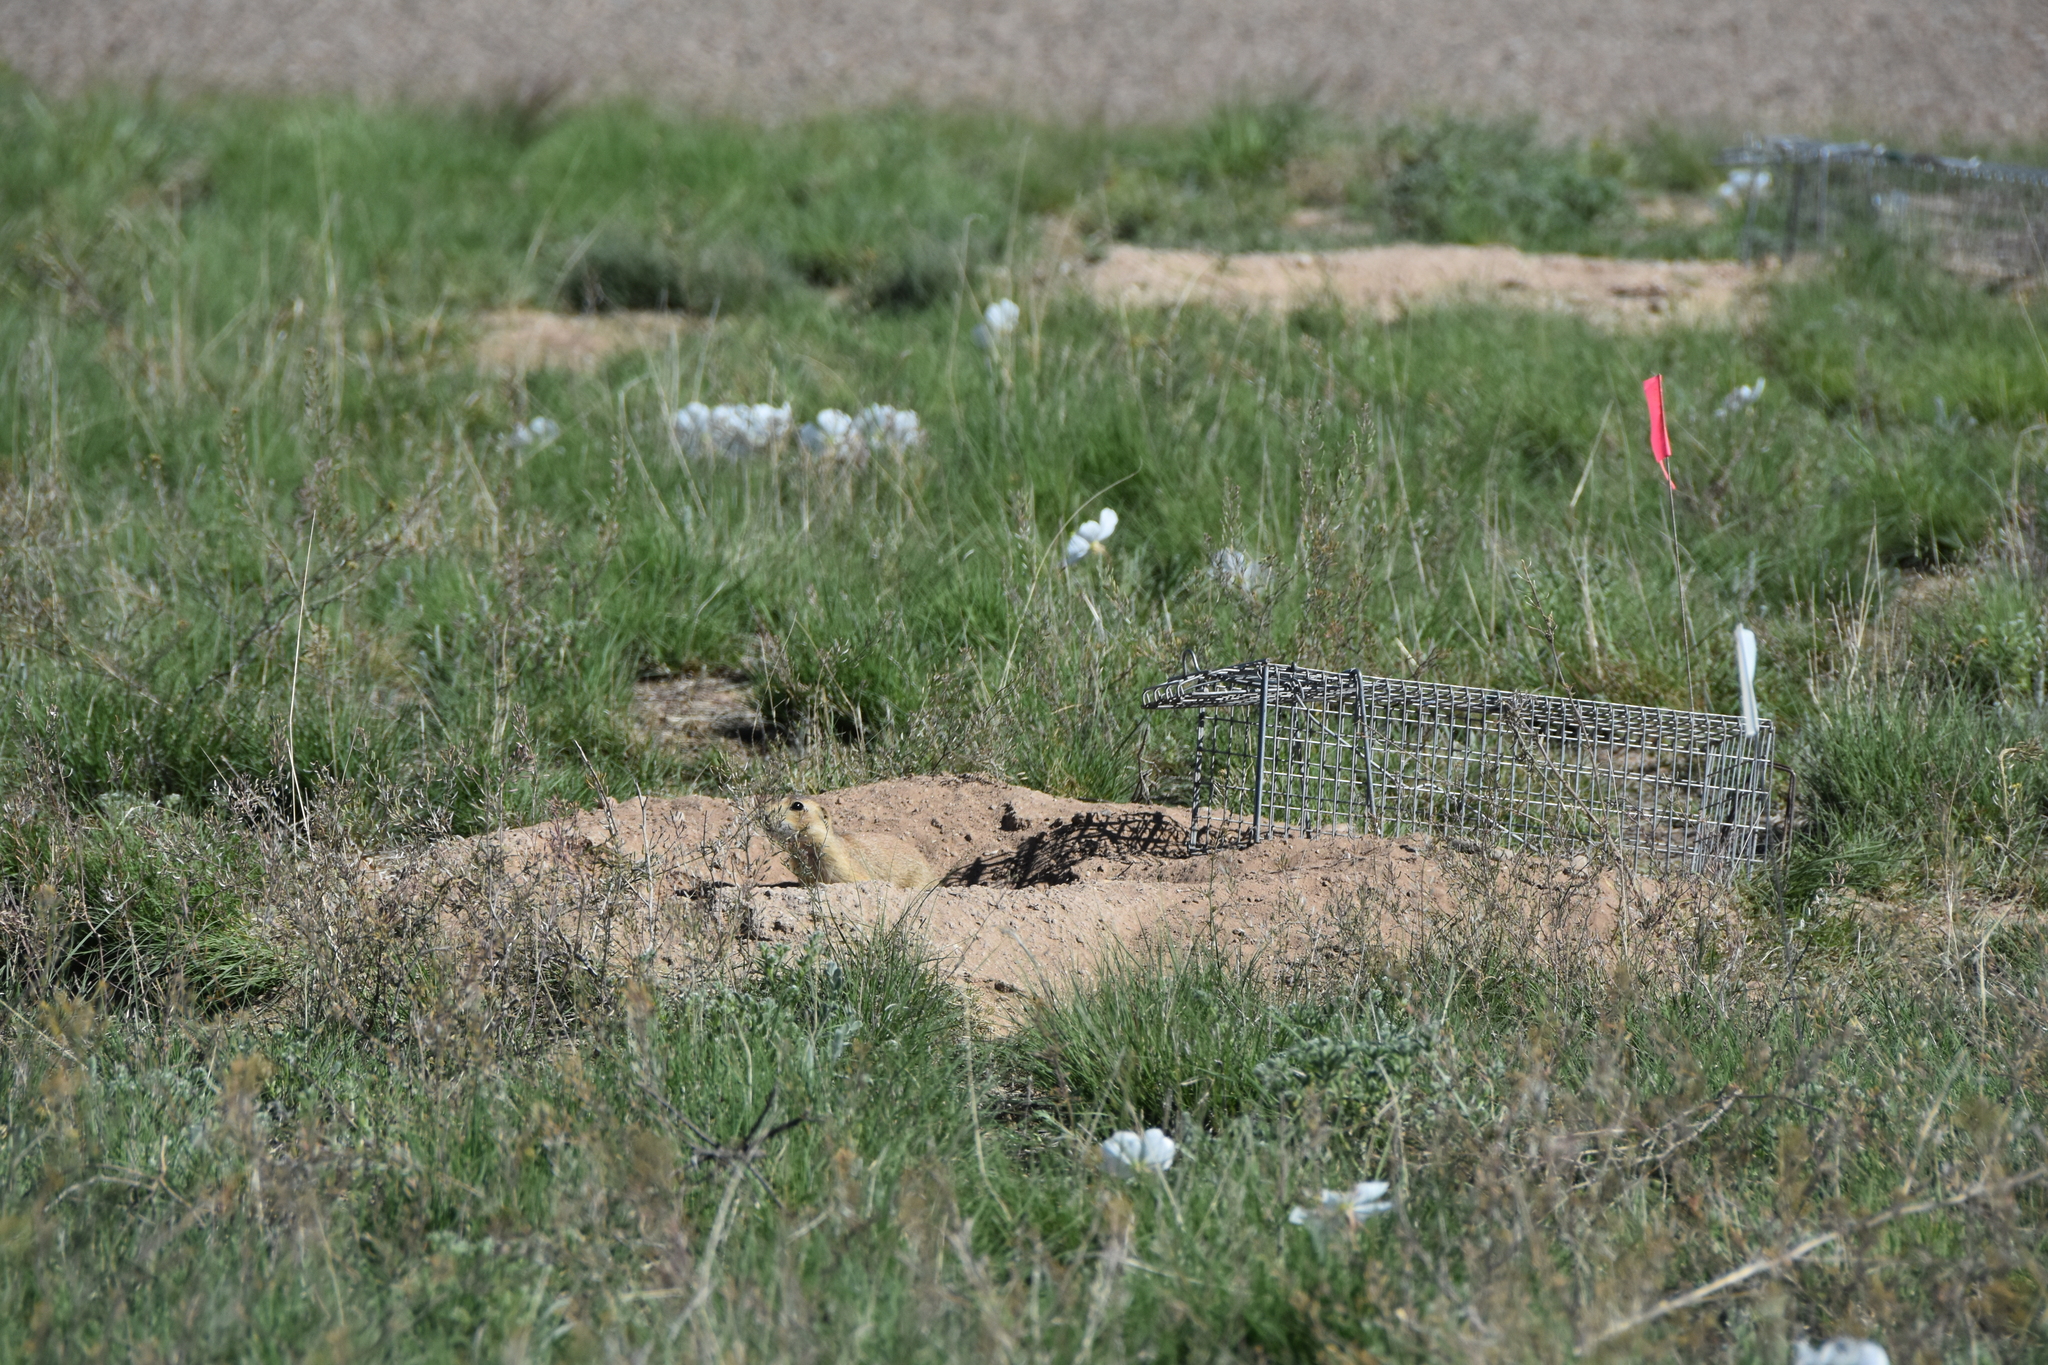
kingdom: Animalia
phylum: Chordata
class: Mammalia
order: Rodentia
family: Sciuridae
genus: Cynomys
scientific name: Cynomys gunnisoni
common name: Gunnison's prairie dog
